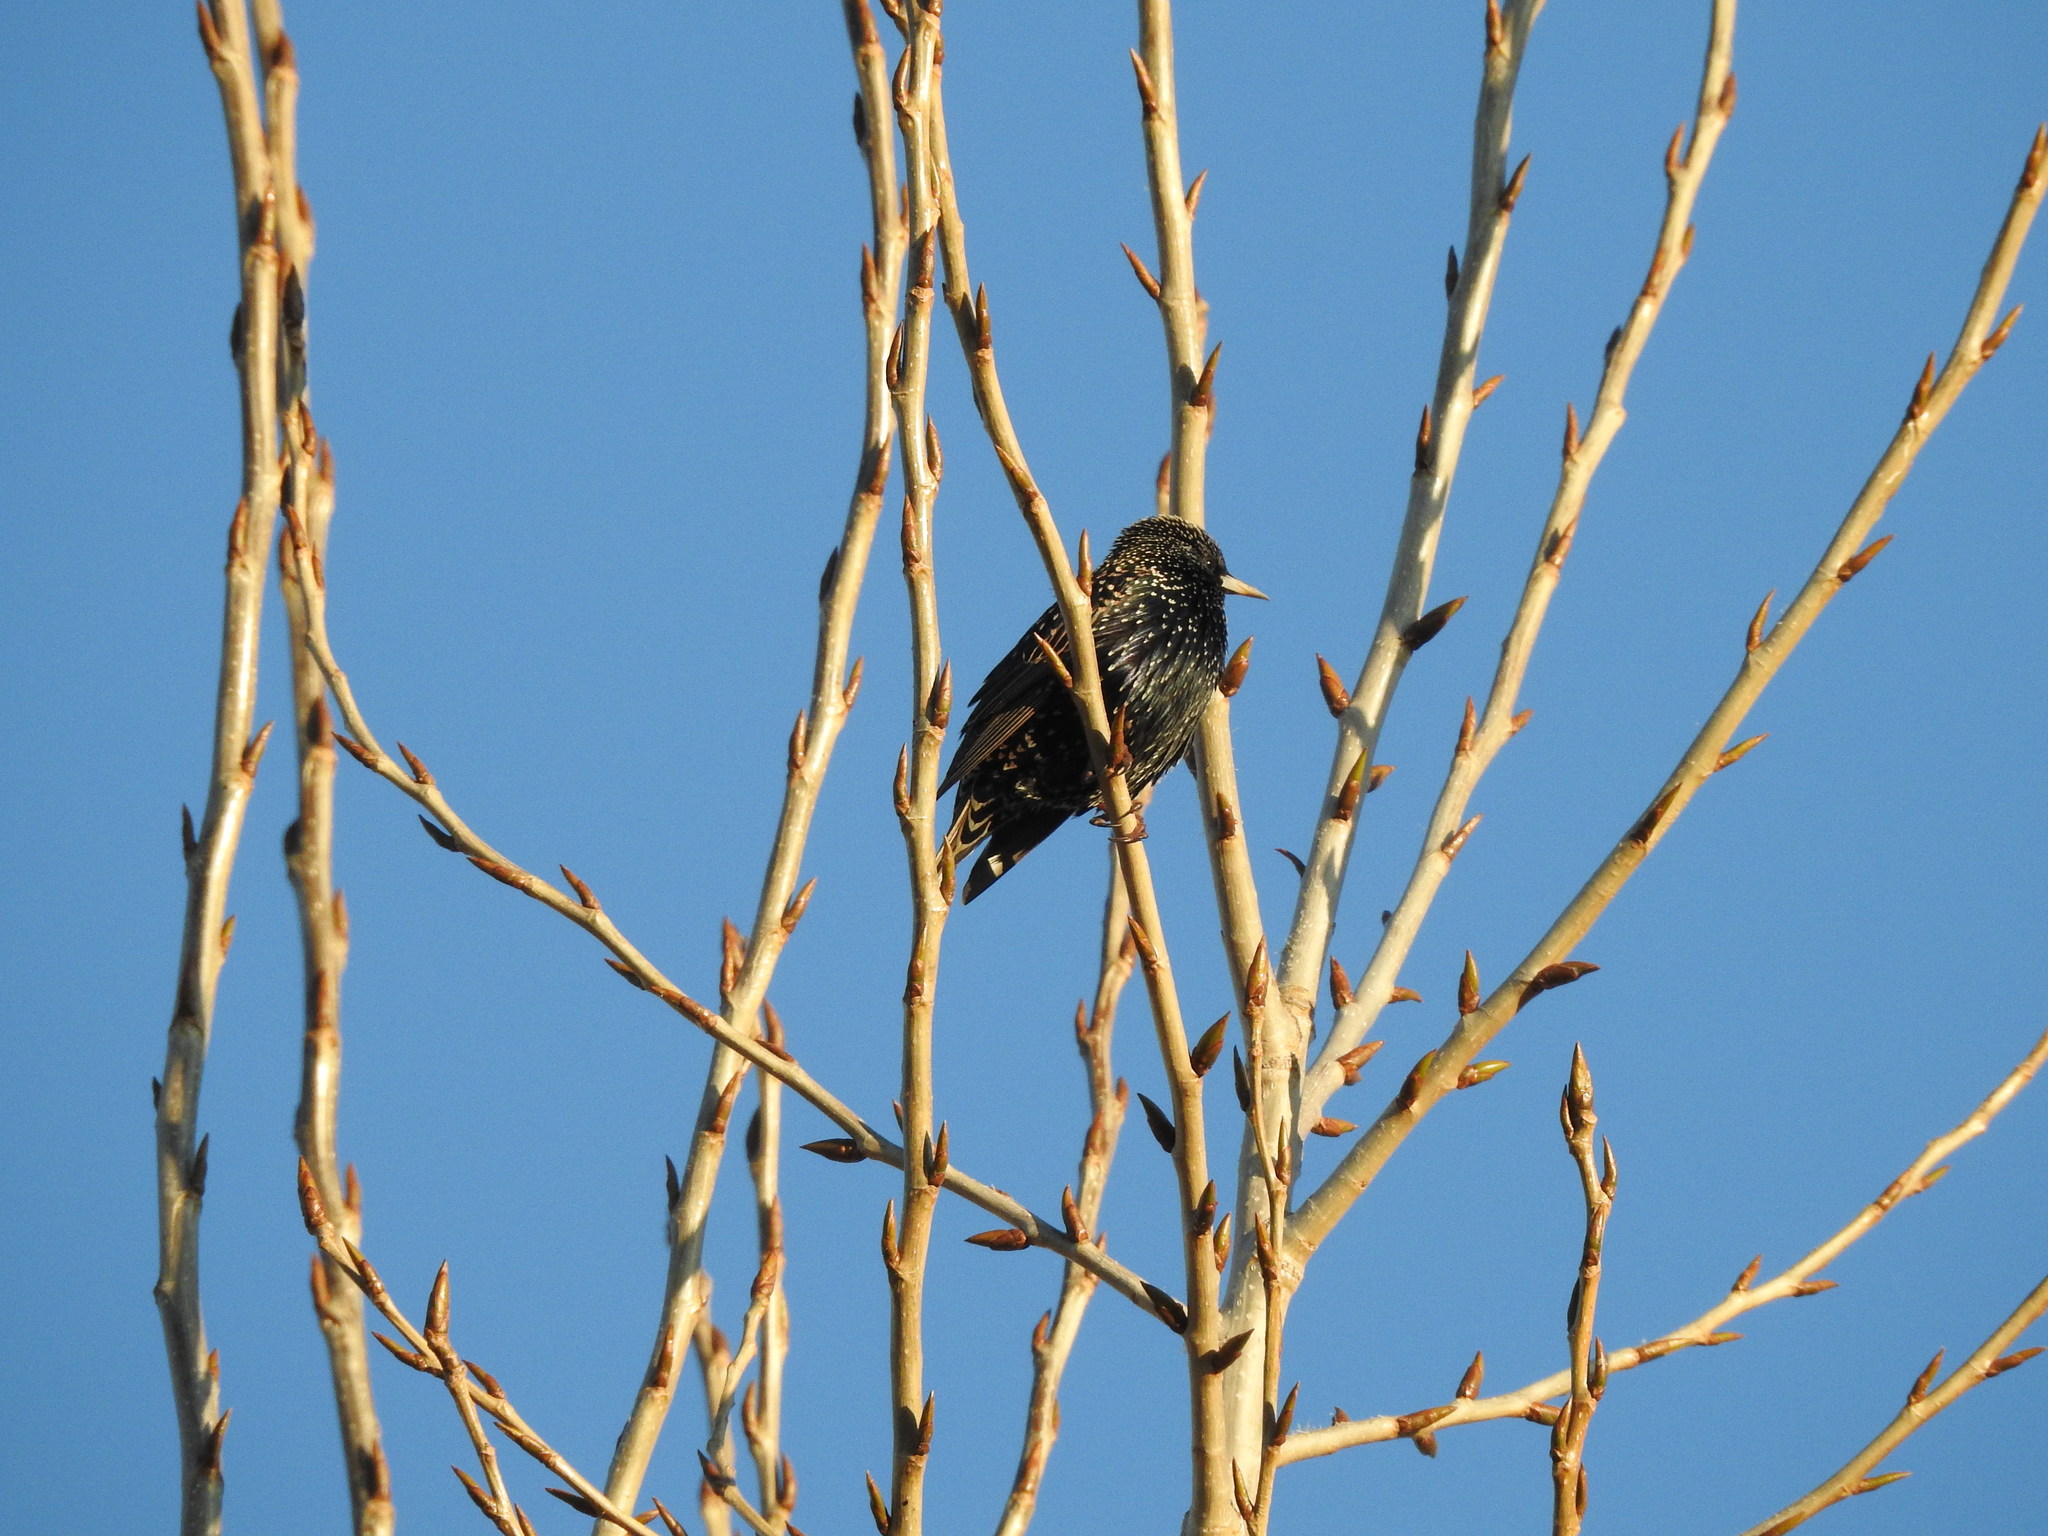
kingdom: Animalia
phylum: Chordata
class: Aves
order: Passeriformes
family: Sturnidae
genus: Sturnus
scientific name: Sturnus vulgaris
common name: Common starling
